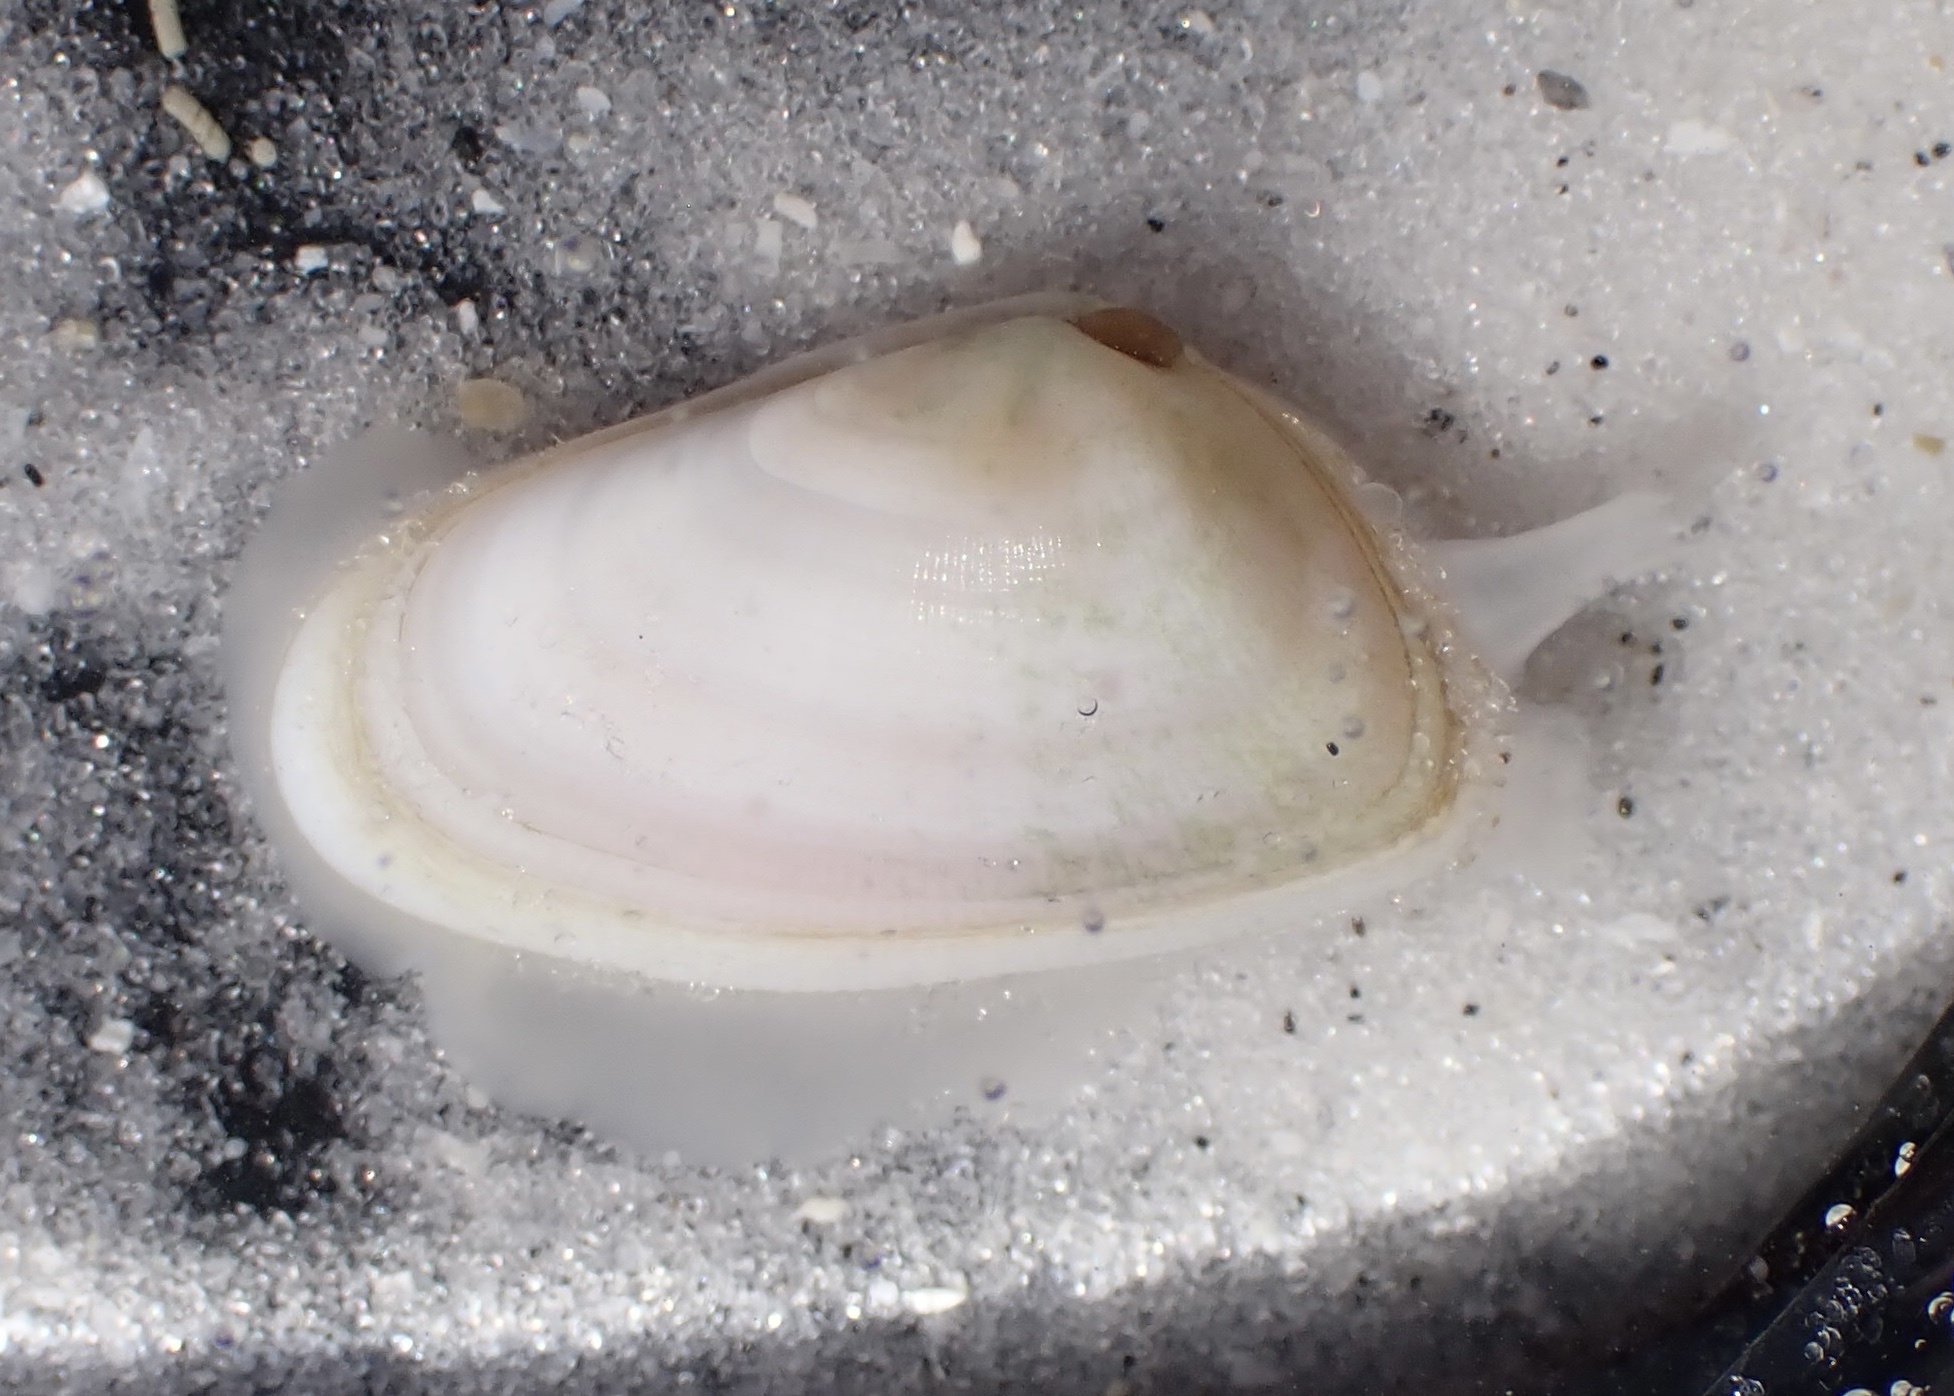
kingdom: Animalia
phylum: Mollusca
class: Bivalvia
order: Cardiida
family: Donacidae
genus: Donax
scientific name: Donax variabilis
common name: Butterfly shell
